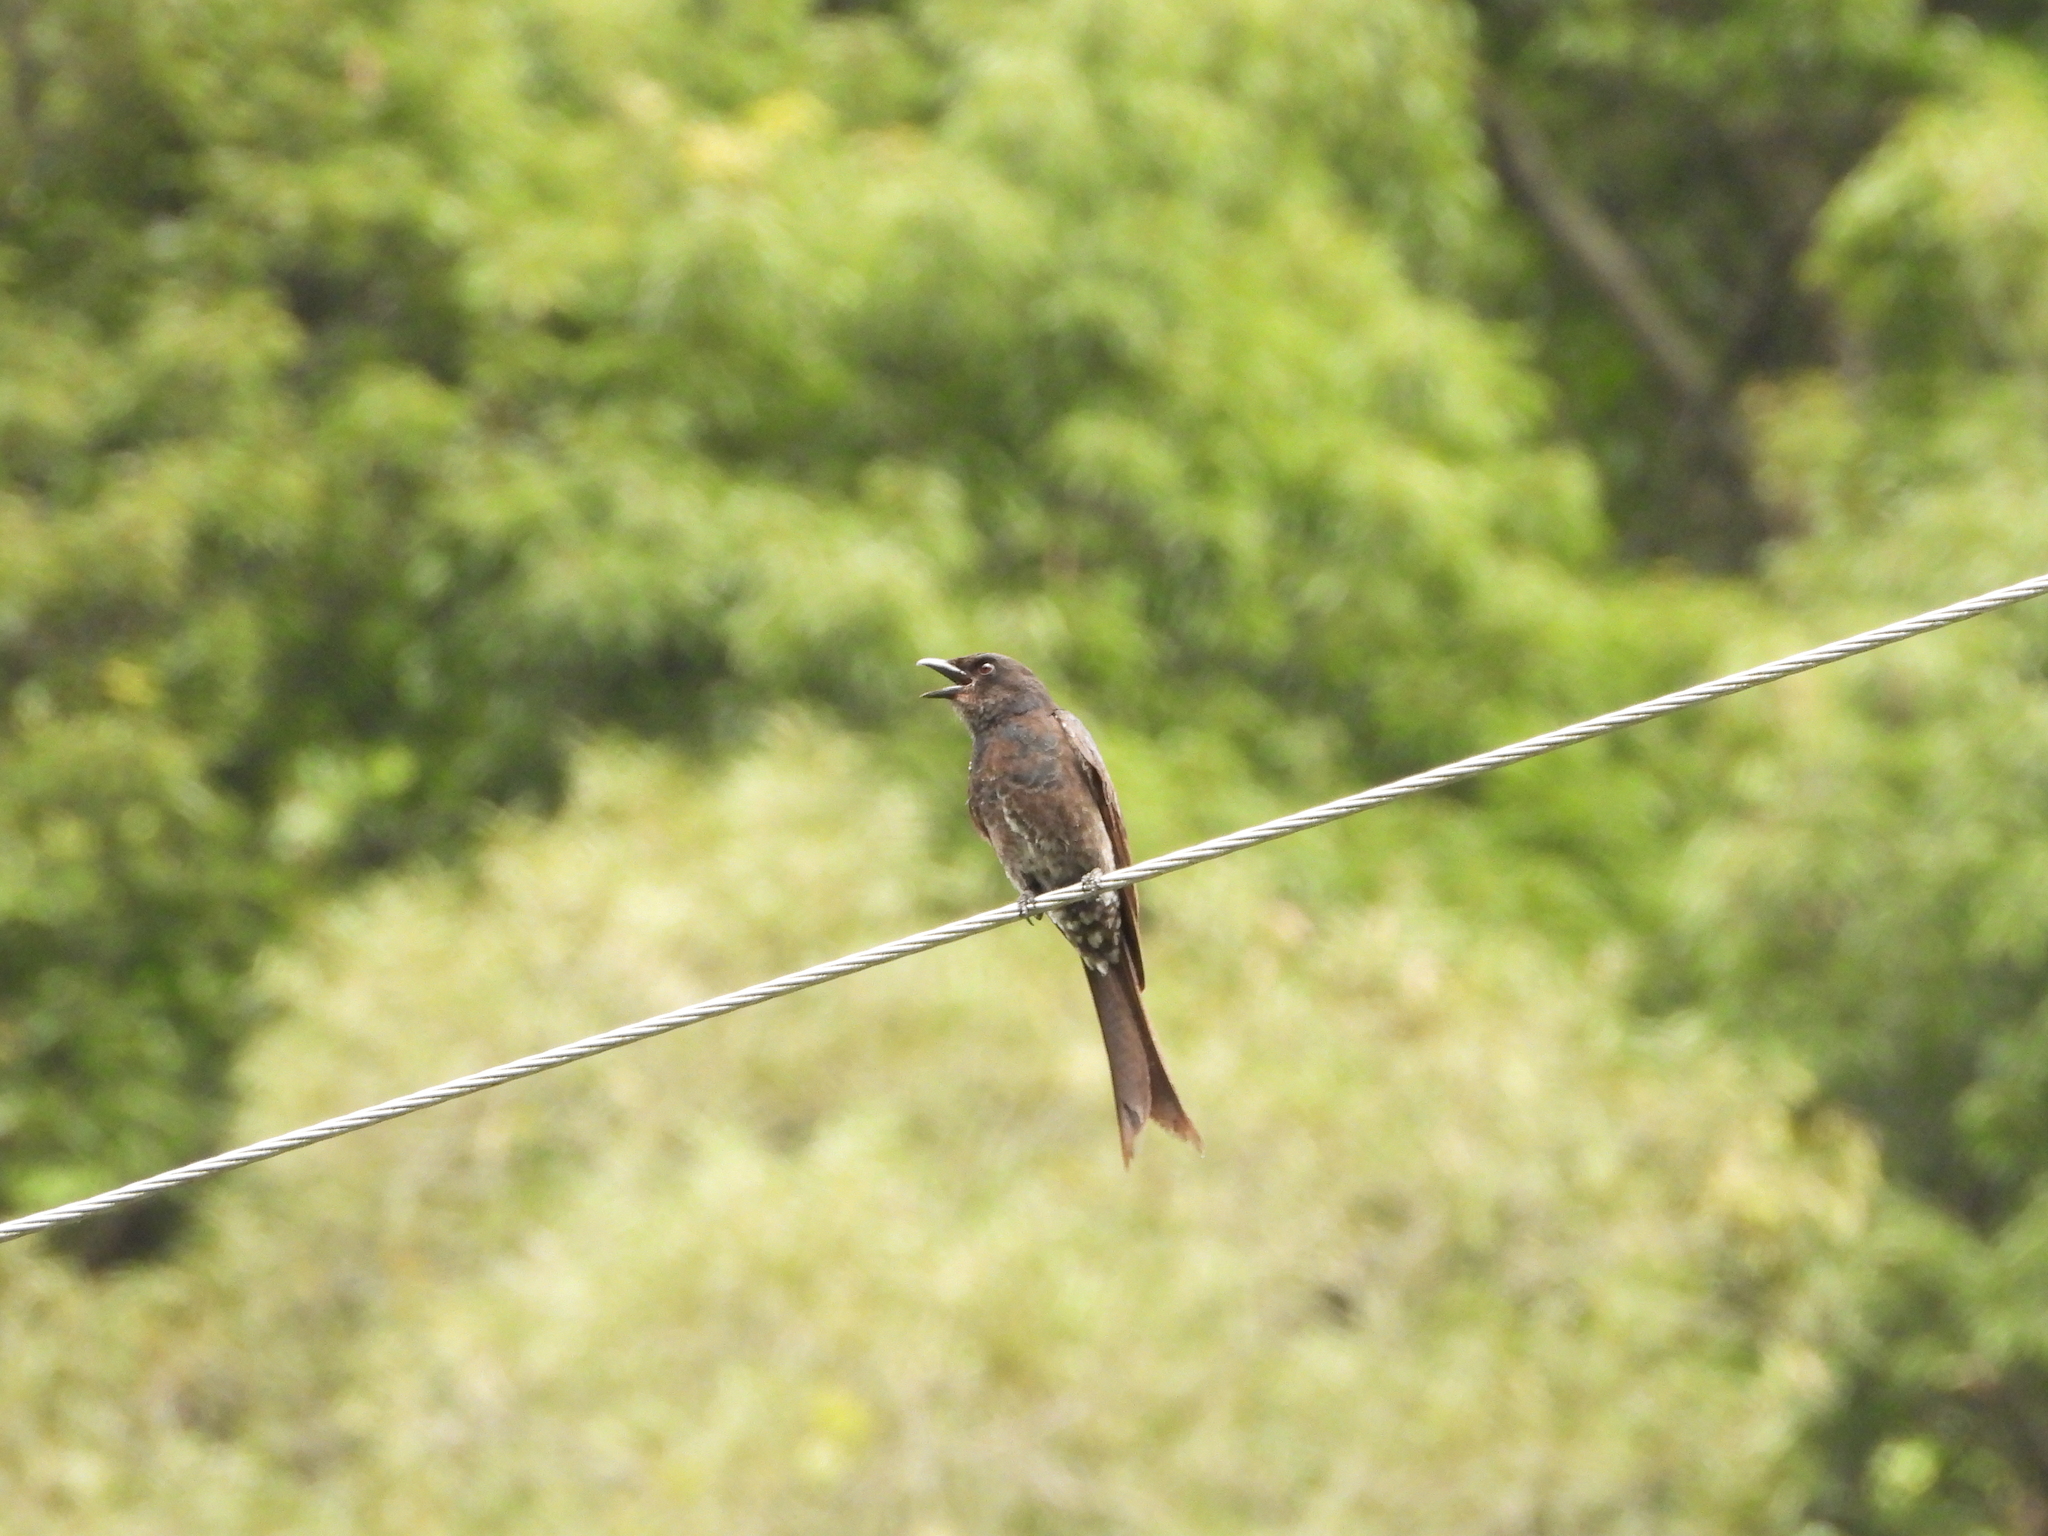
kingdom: Animalia
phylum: Chordata
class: Aves
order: Passeriformes
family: Dicruridae
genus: Dicrurus
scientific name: Dicrurus macrocercus
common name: Black drongo
